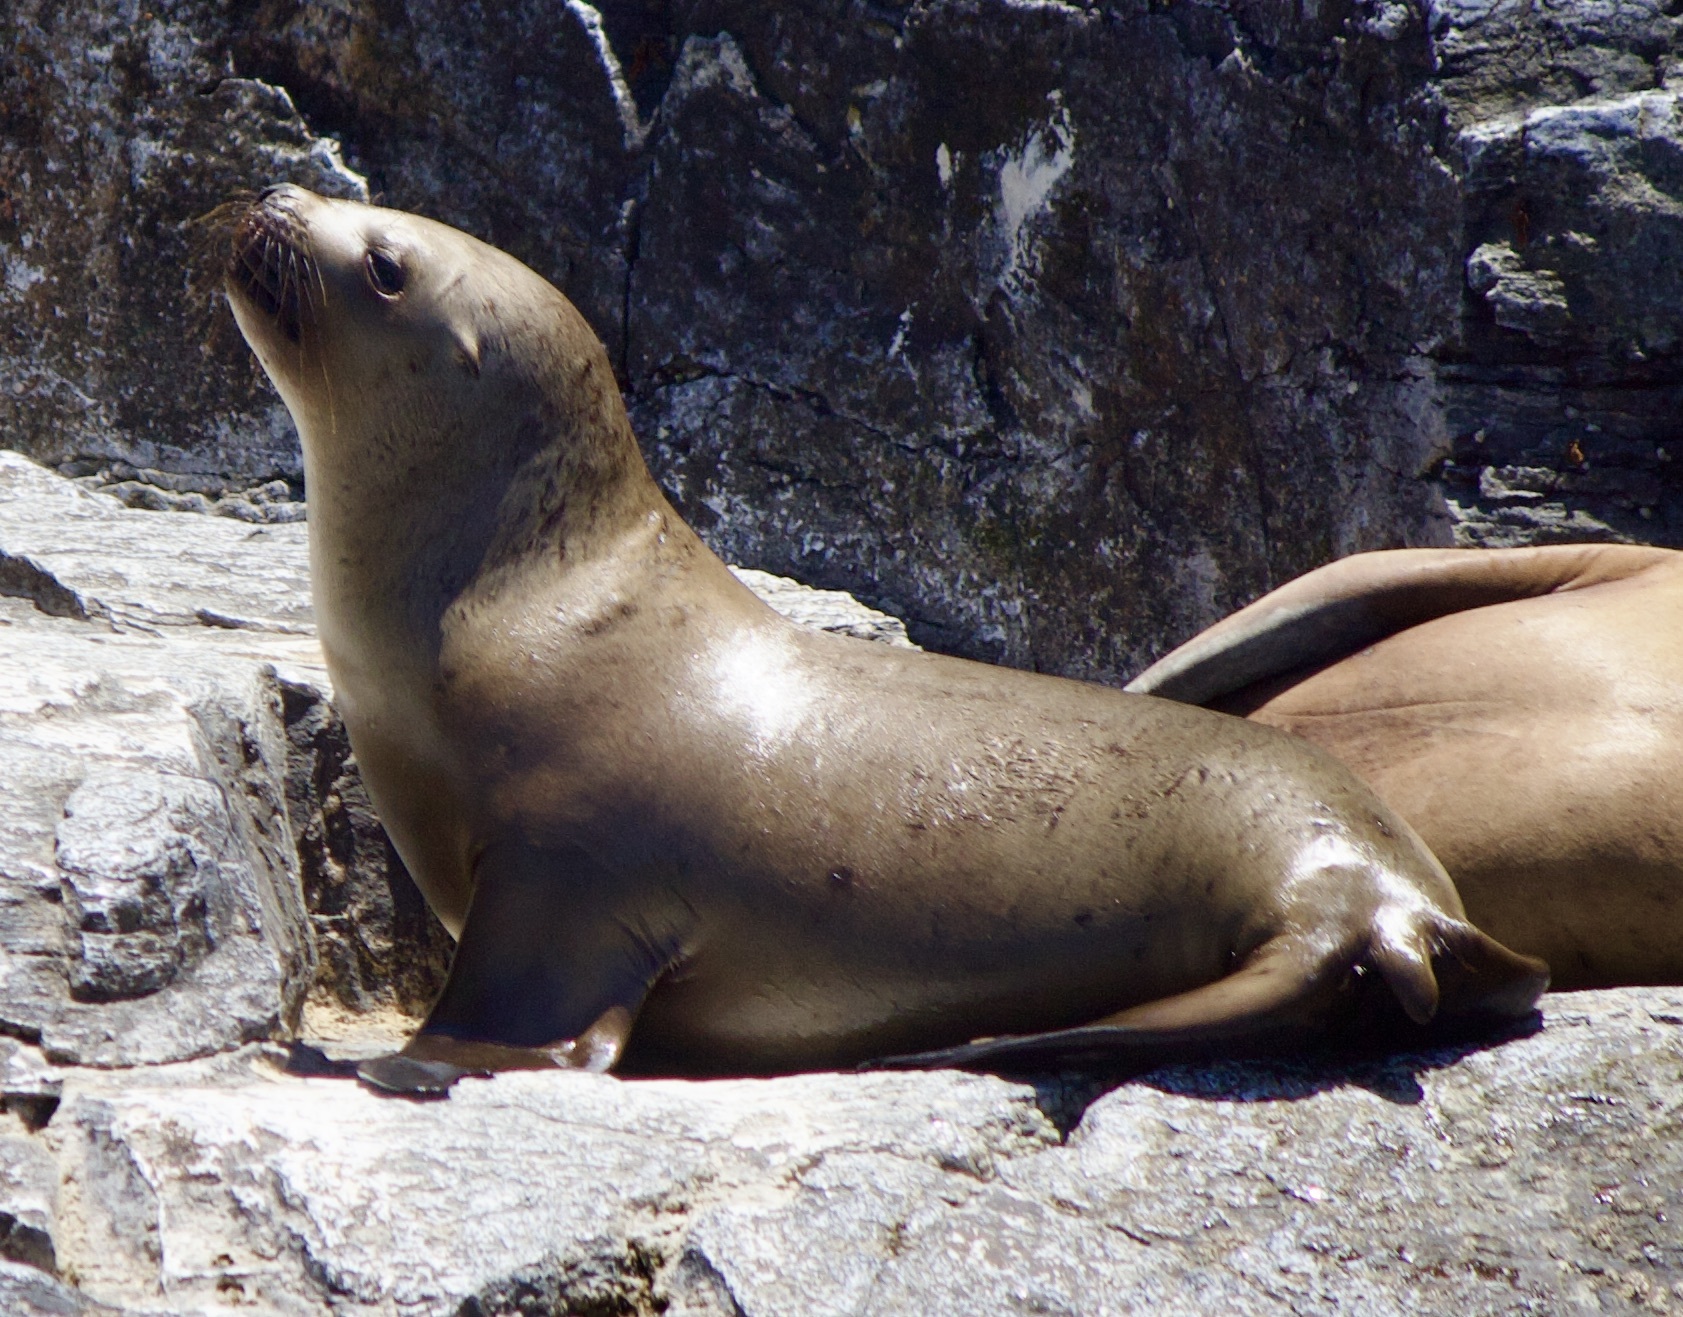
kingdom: Animalia
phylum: Chordata
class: Mammalia
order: Carnivora
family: Otariidae
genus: Otaria
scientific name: Otaria byronia
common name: South american sea lion
